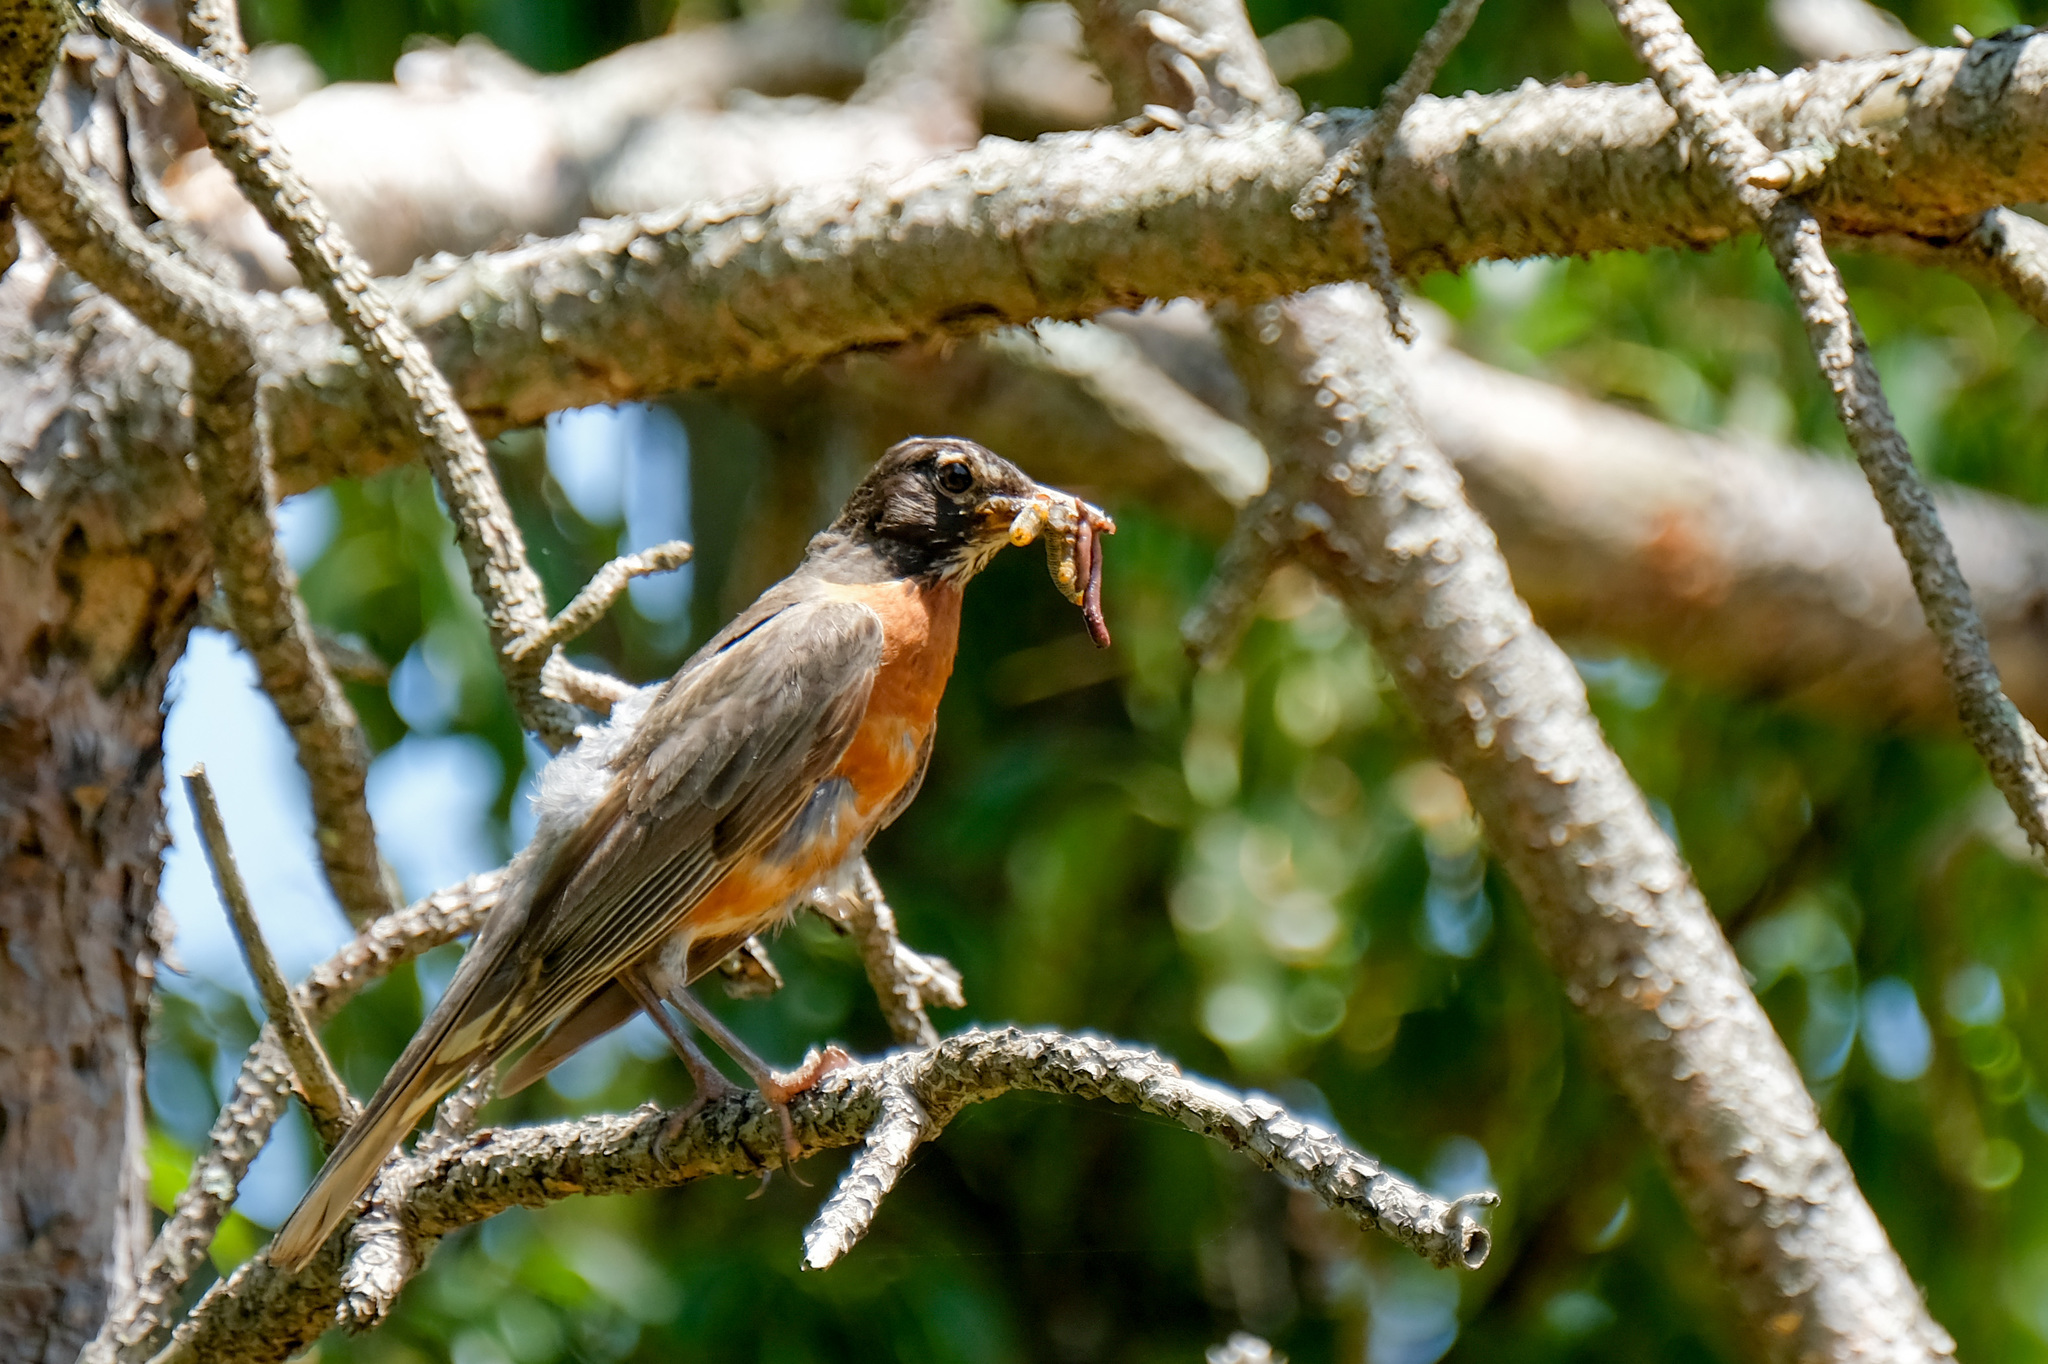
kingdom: Animalia
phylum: Chordata
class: Aves
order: Passeriformes
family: Turdidae
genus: Turdus
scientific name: Turdus migratorius
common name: American robin
